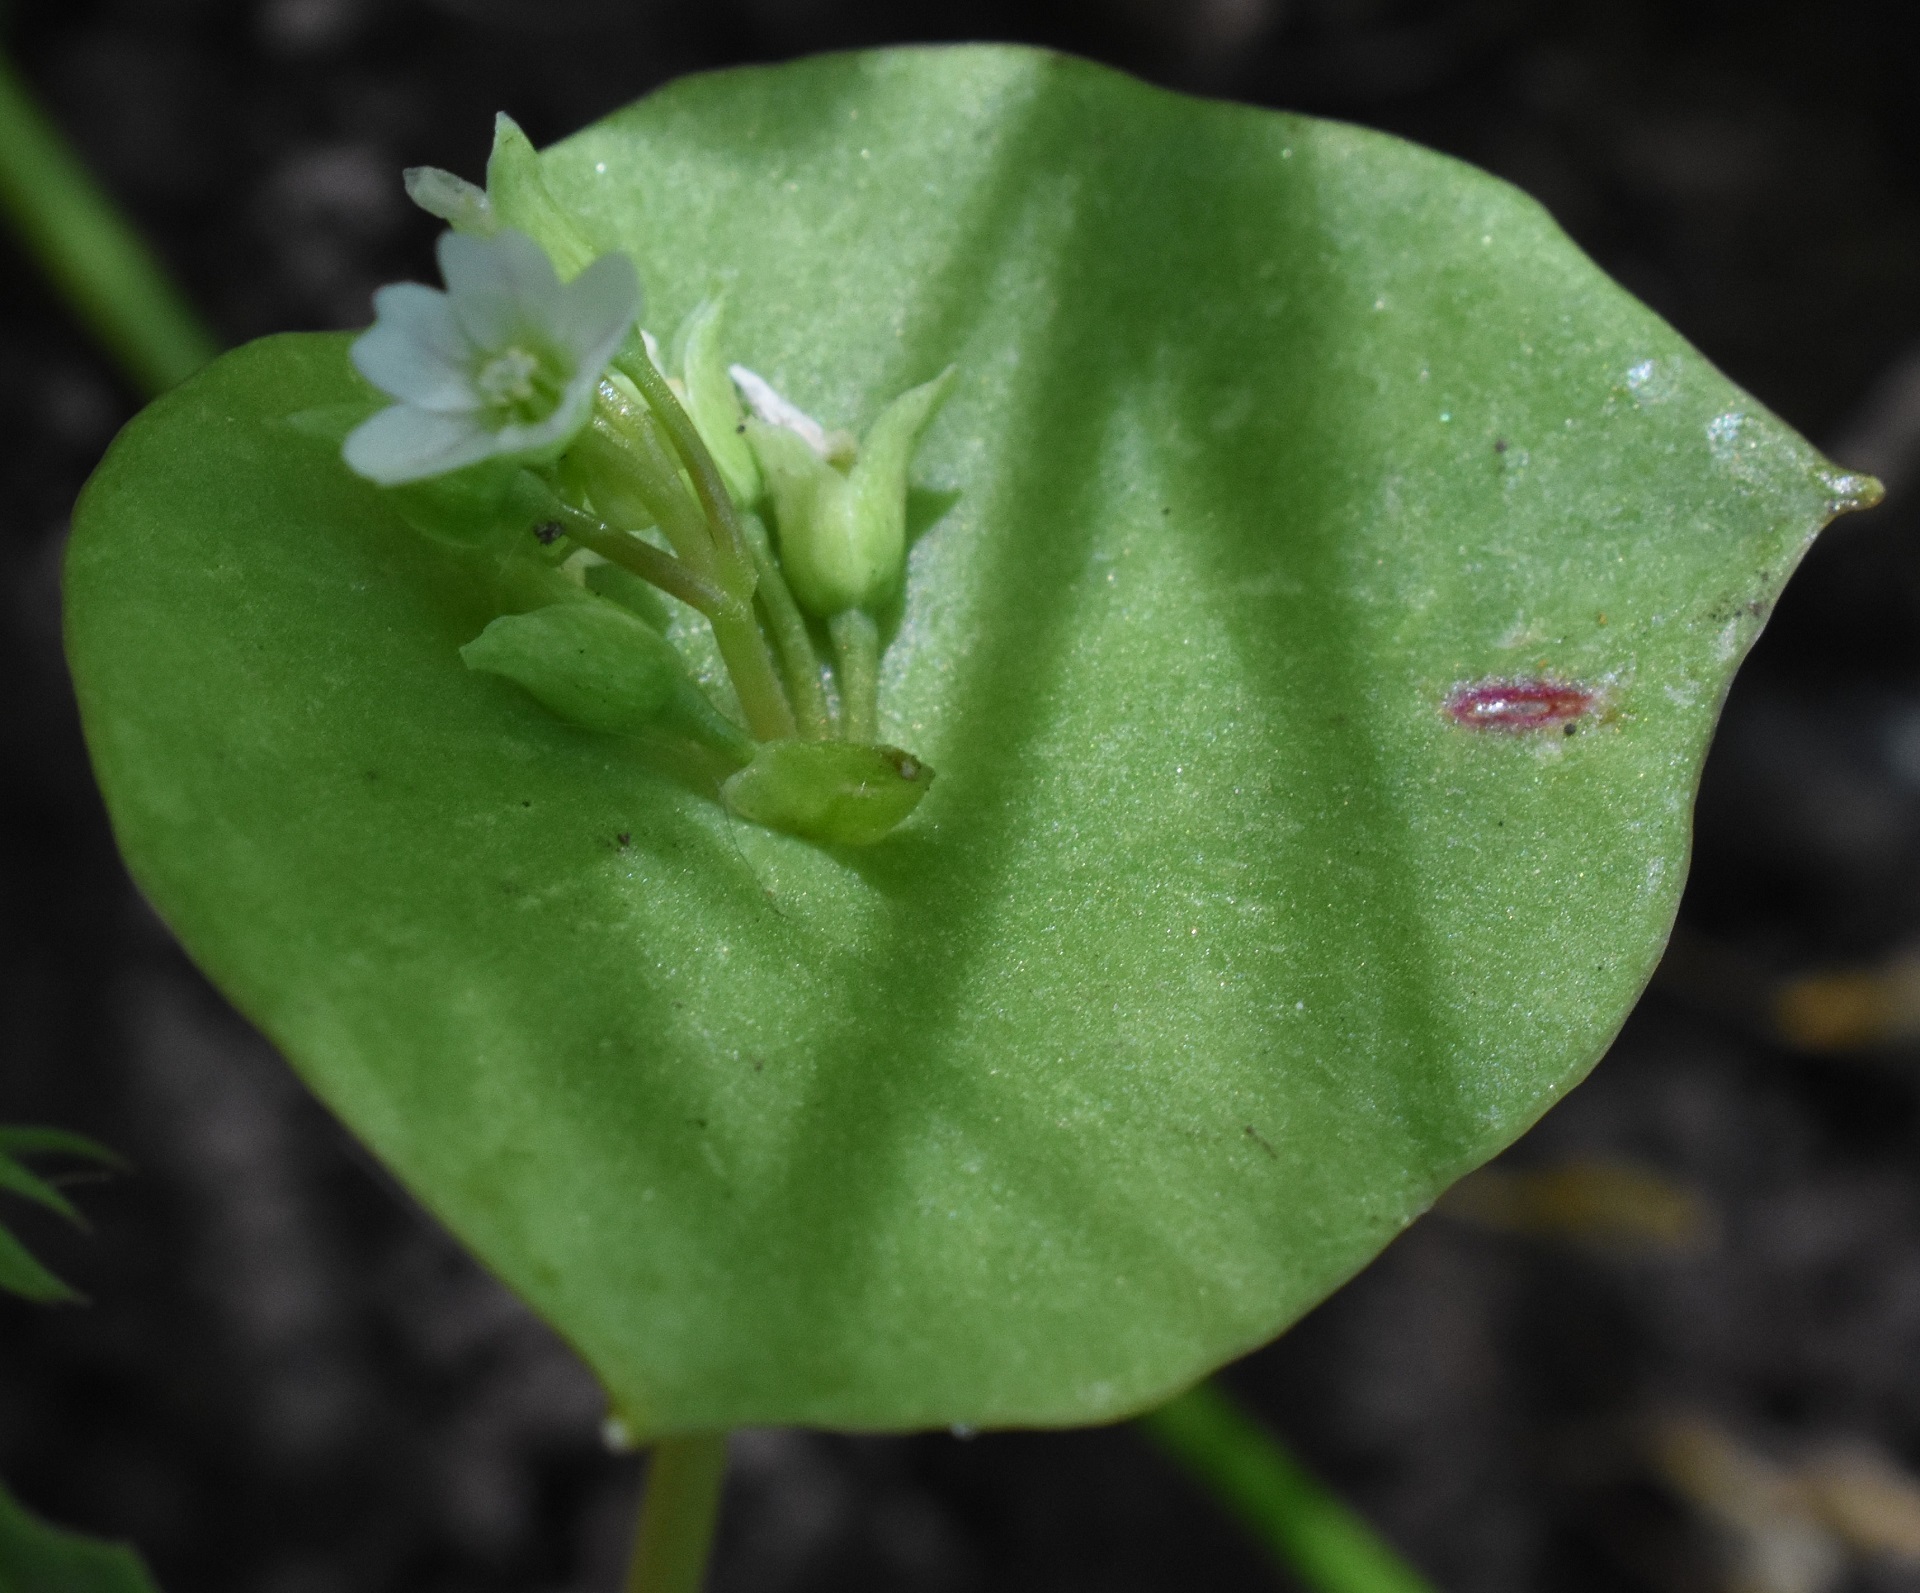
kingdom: Plantae
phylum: Tracheophyta
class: Magnoliopsida
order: Caryophyllales
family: Montiaceae
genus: Claytonia
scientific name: Claytonia perfoliata
